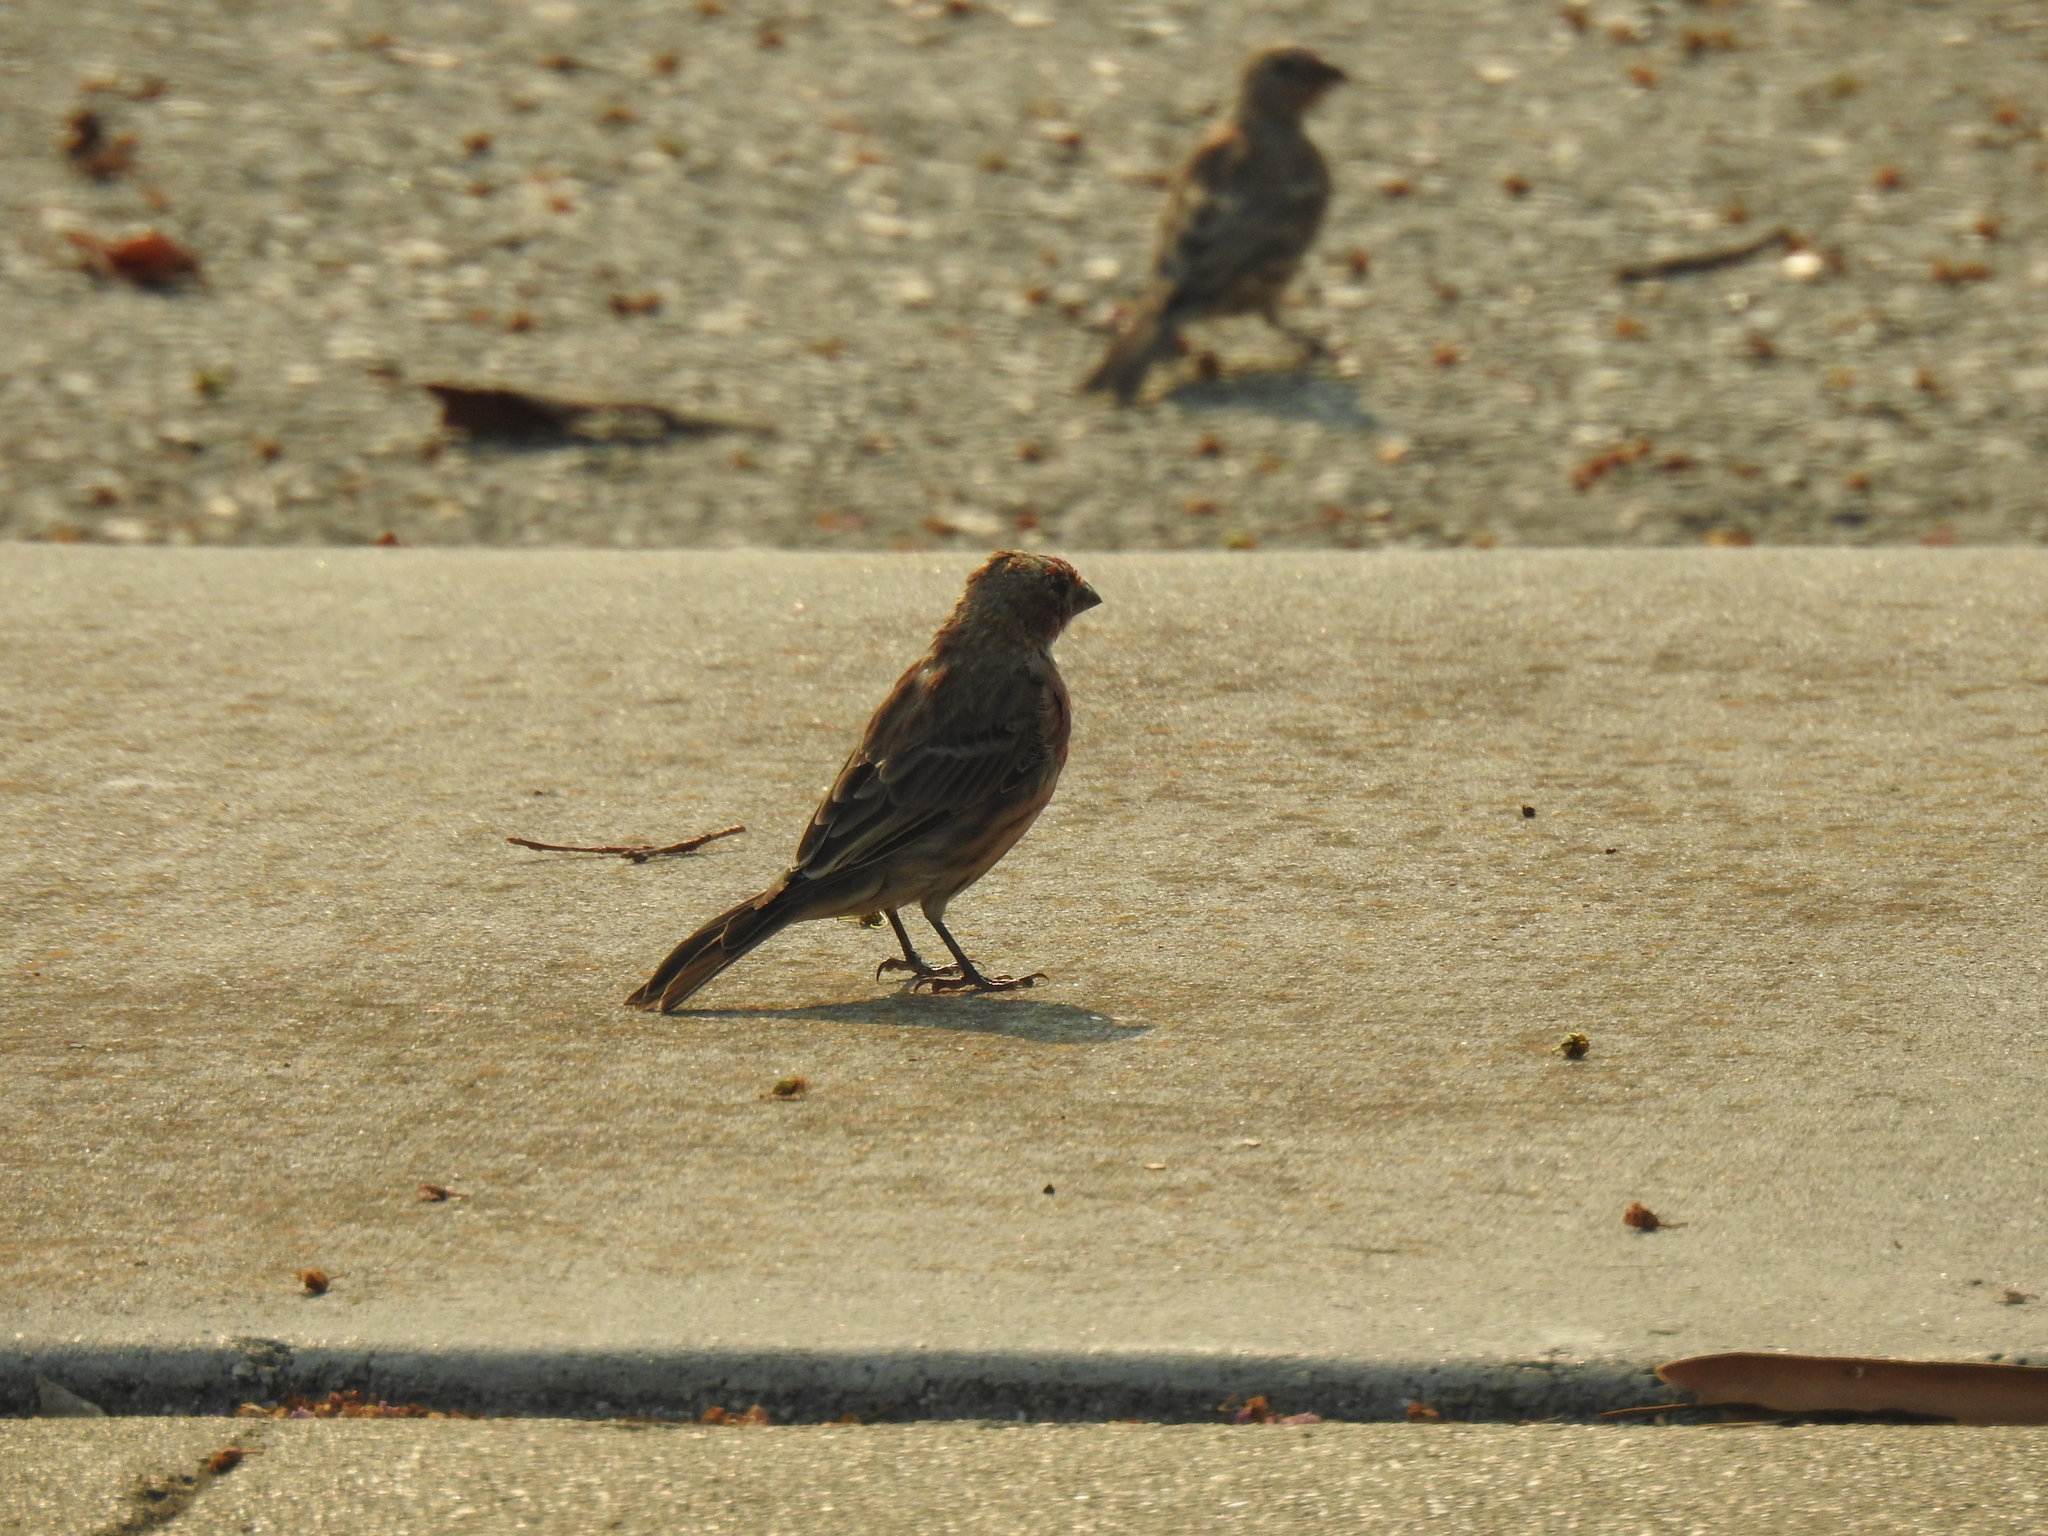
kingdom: Animalia
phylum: Chordata
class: Aves
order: Passeriformes
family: Fringillidae
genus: Haemorhous
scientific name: Haemorhous mexicanus
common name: House finch
